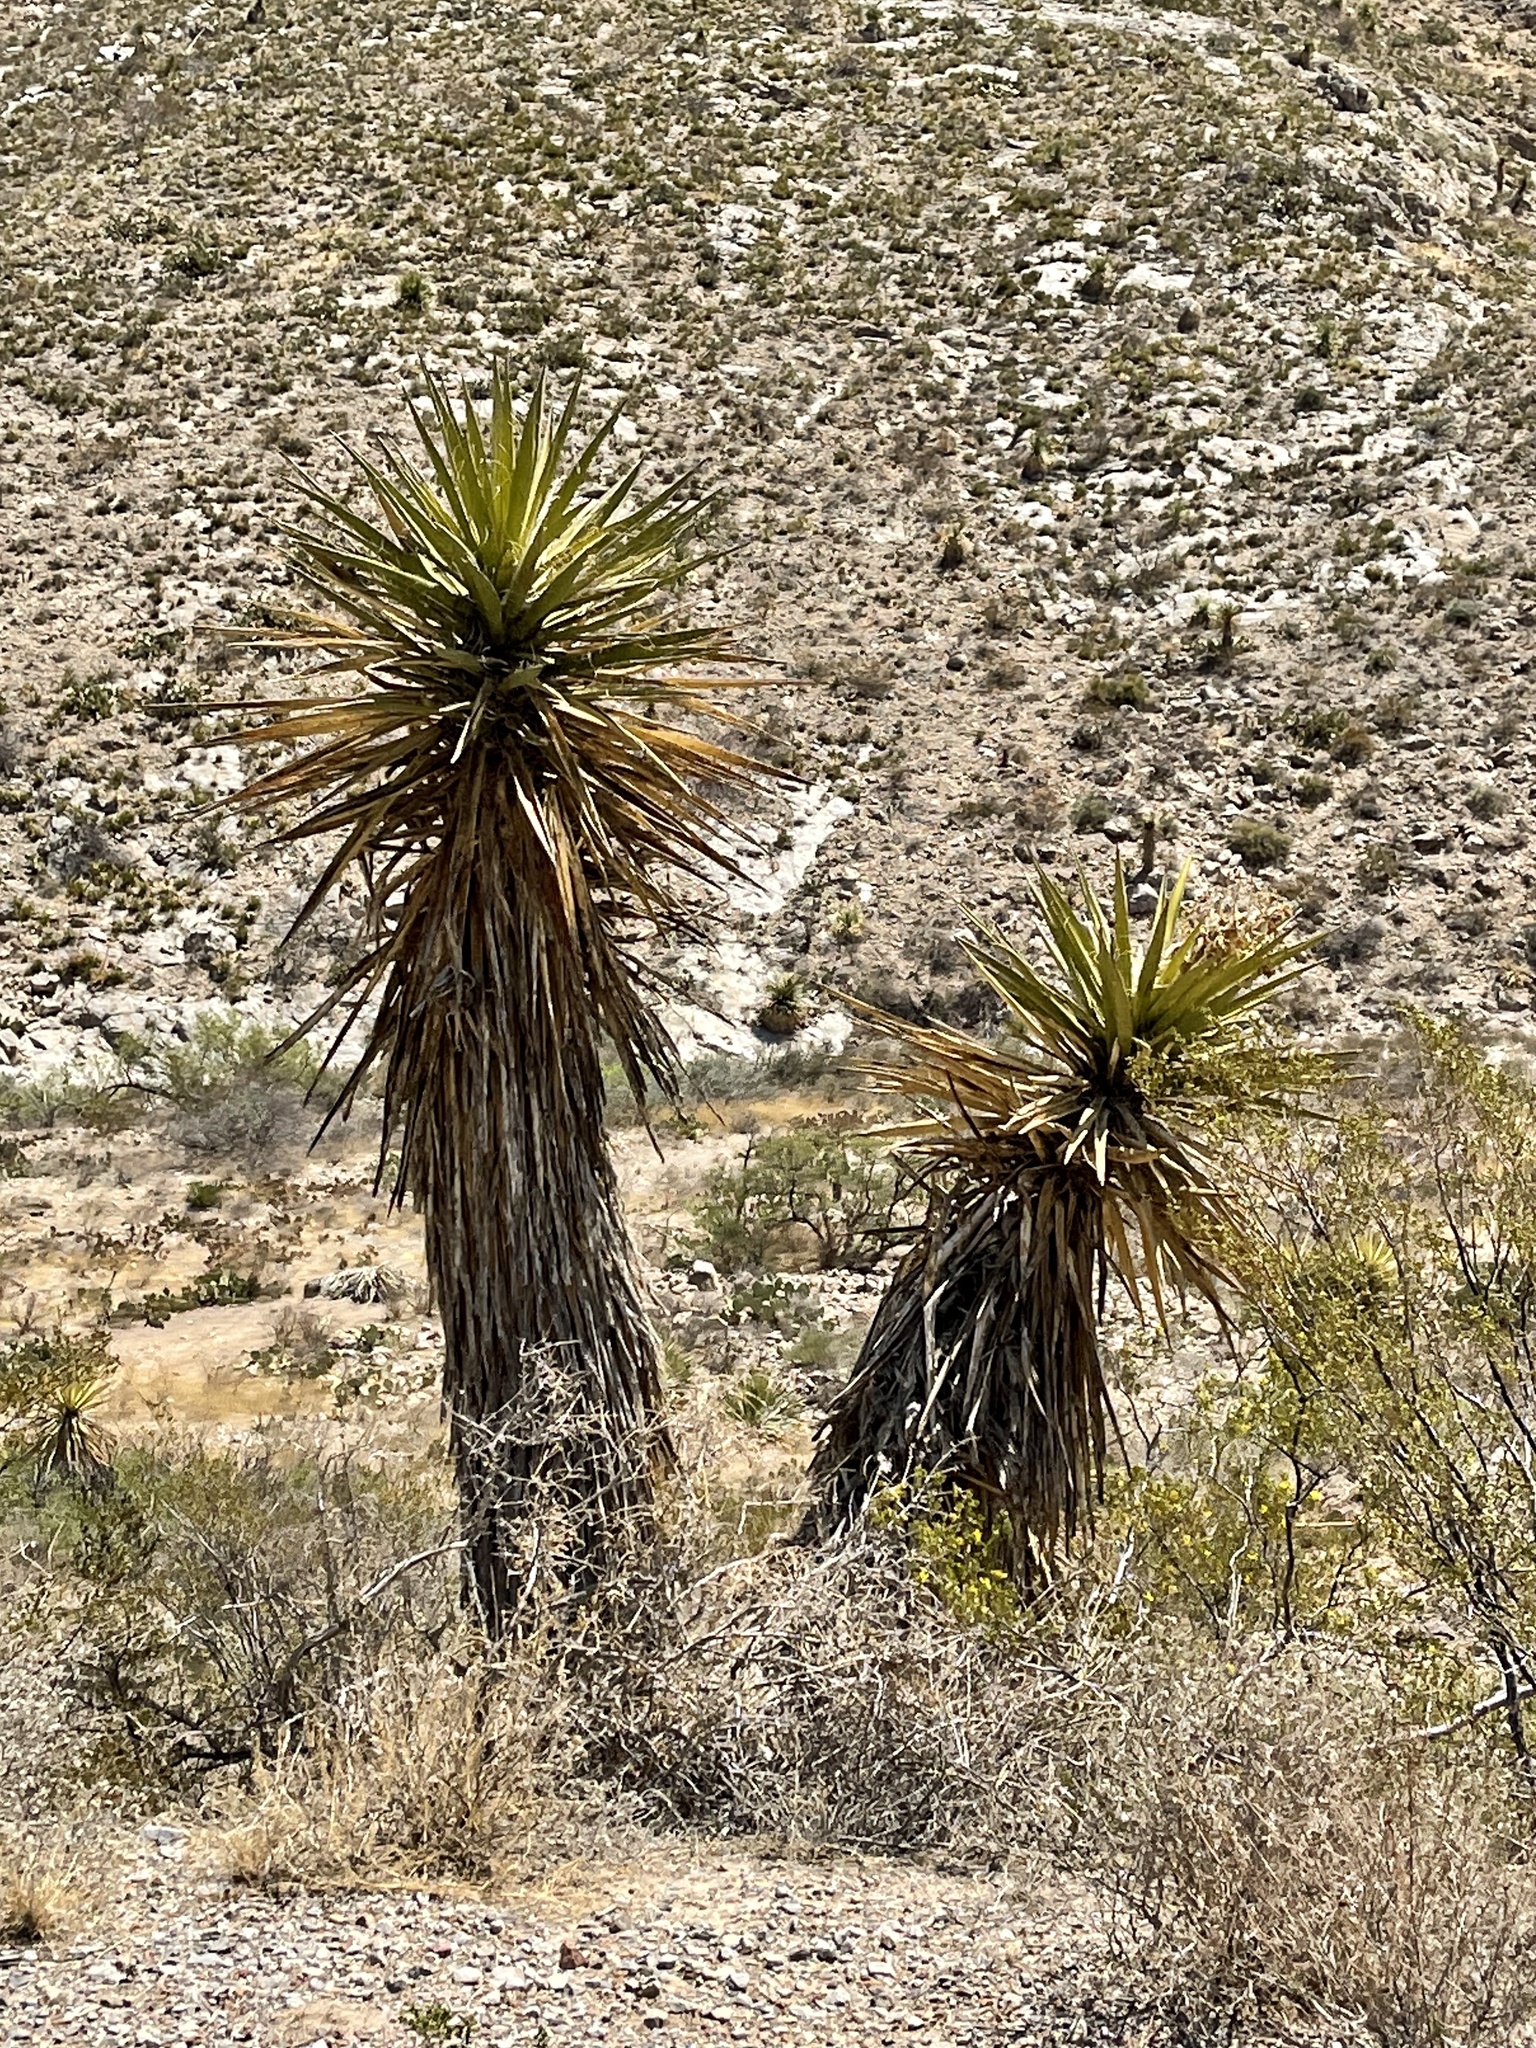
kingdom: Plantae
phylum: Tracheophyta
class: Liliopsida
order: Asparagales
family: Asparagaceae
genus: Yucca
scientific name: Yucca treculiana
